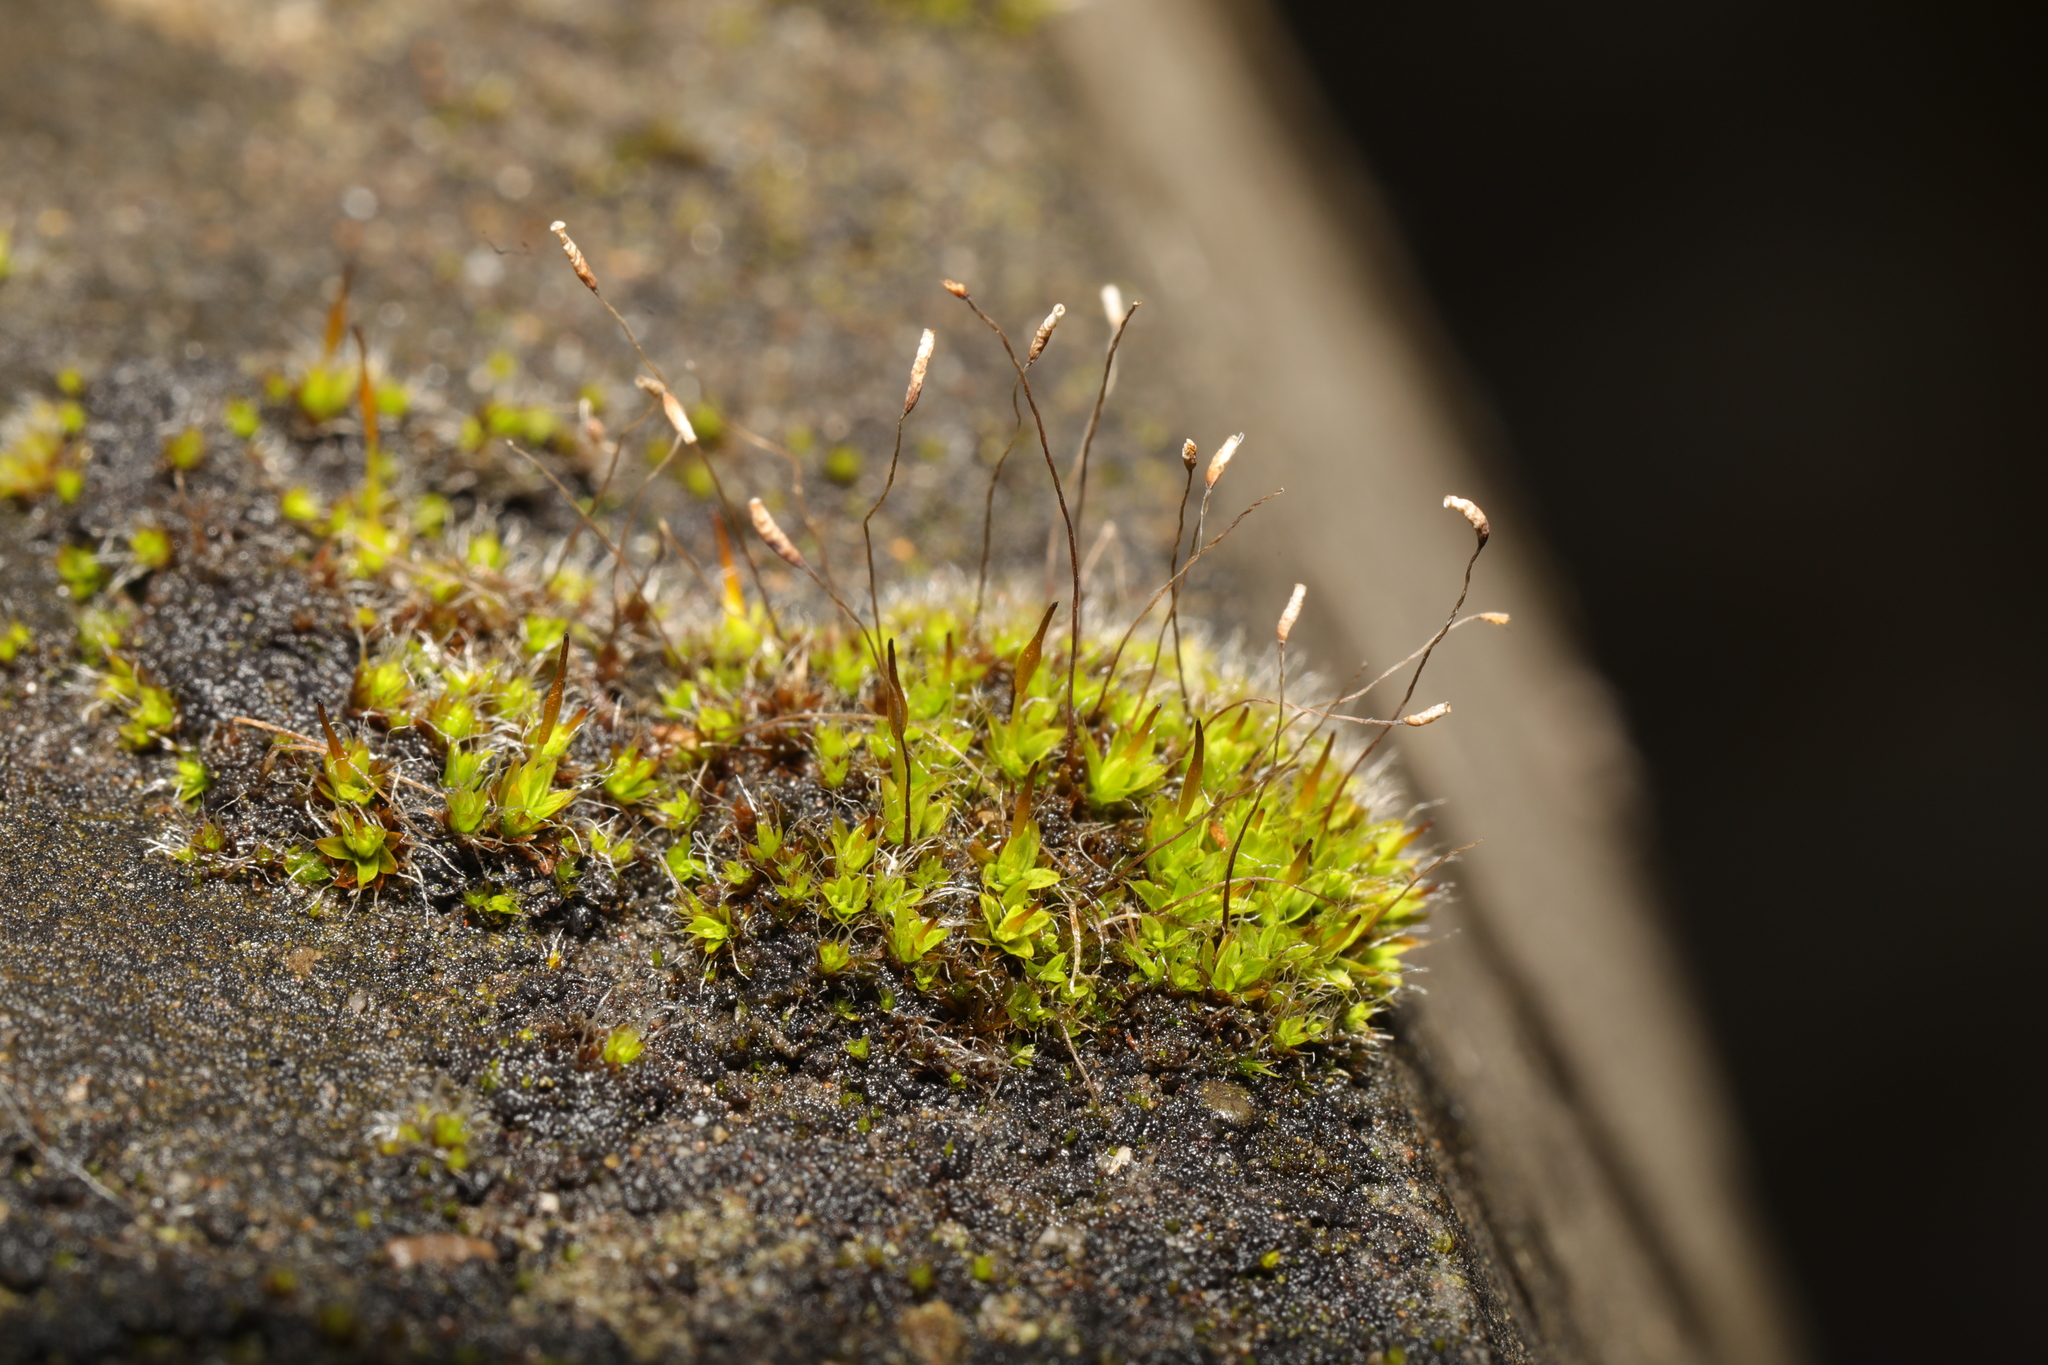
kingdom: Plantae
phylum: Bryophyta
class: Bryopsida
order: Pottiales
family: Pottiaceae
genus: Tortula
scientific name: Tortula muralis
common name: Wall screw-moss
